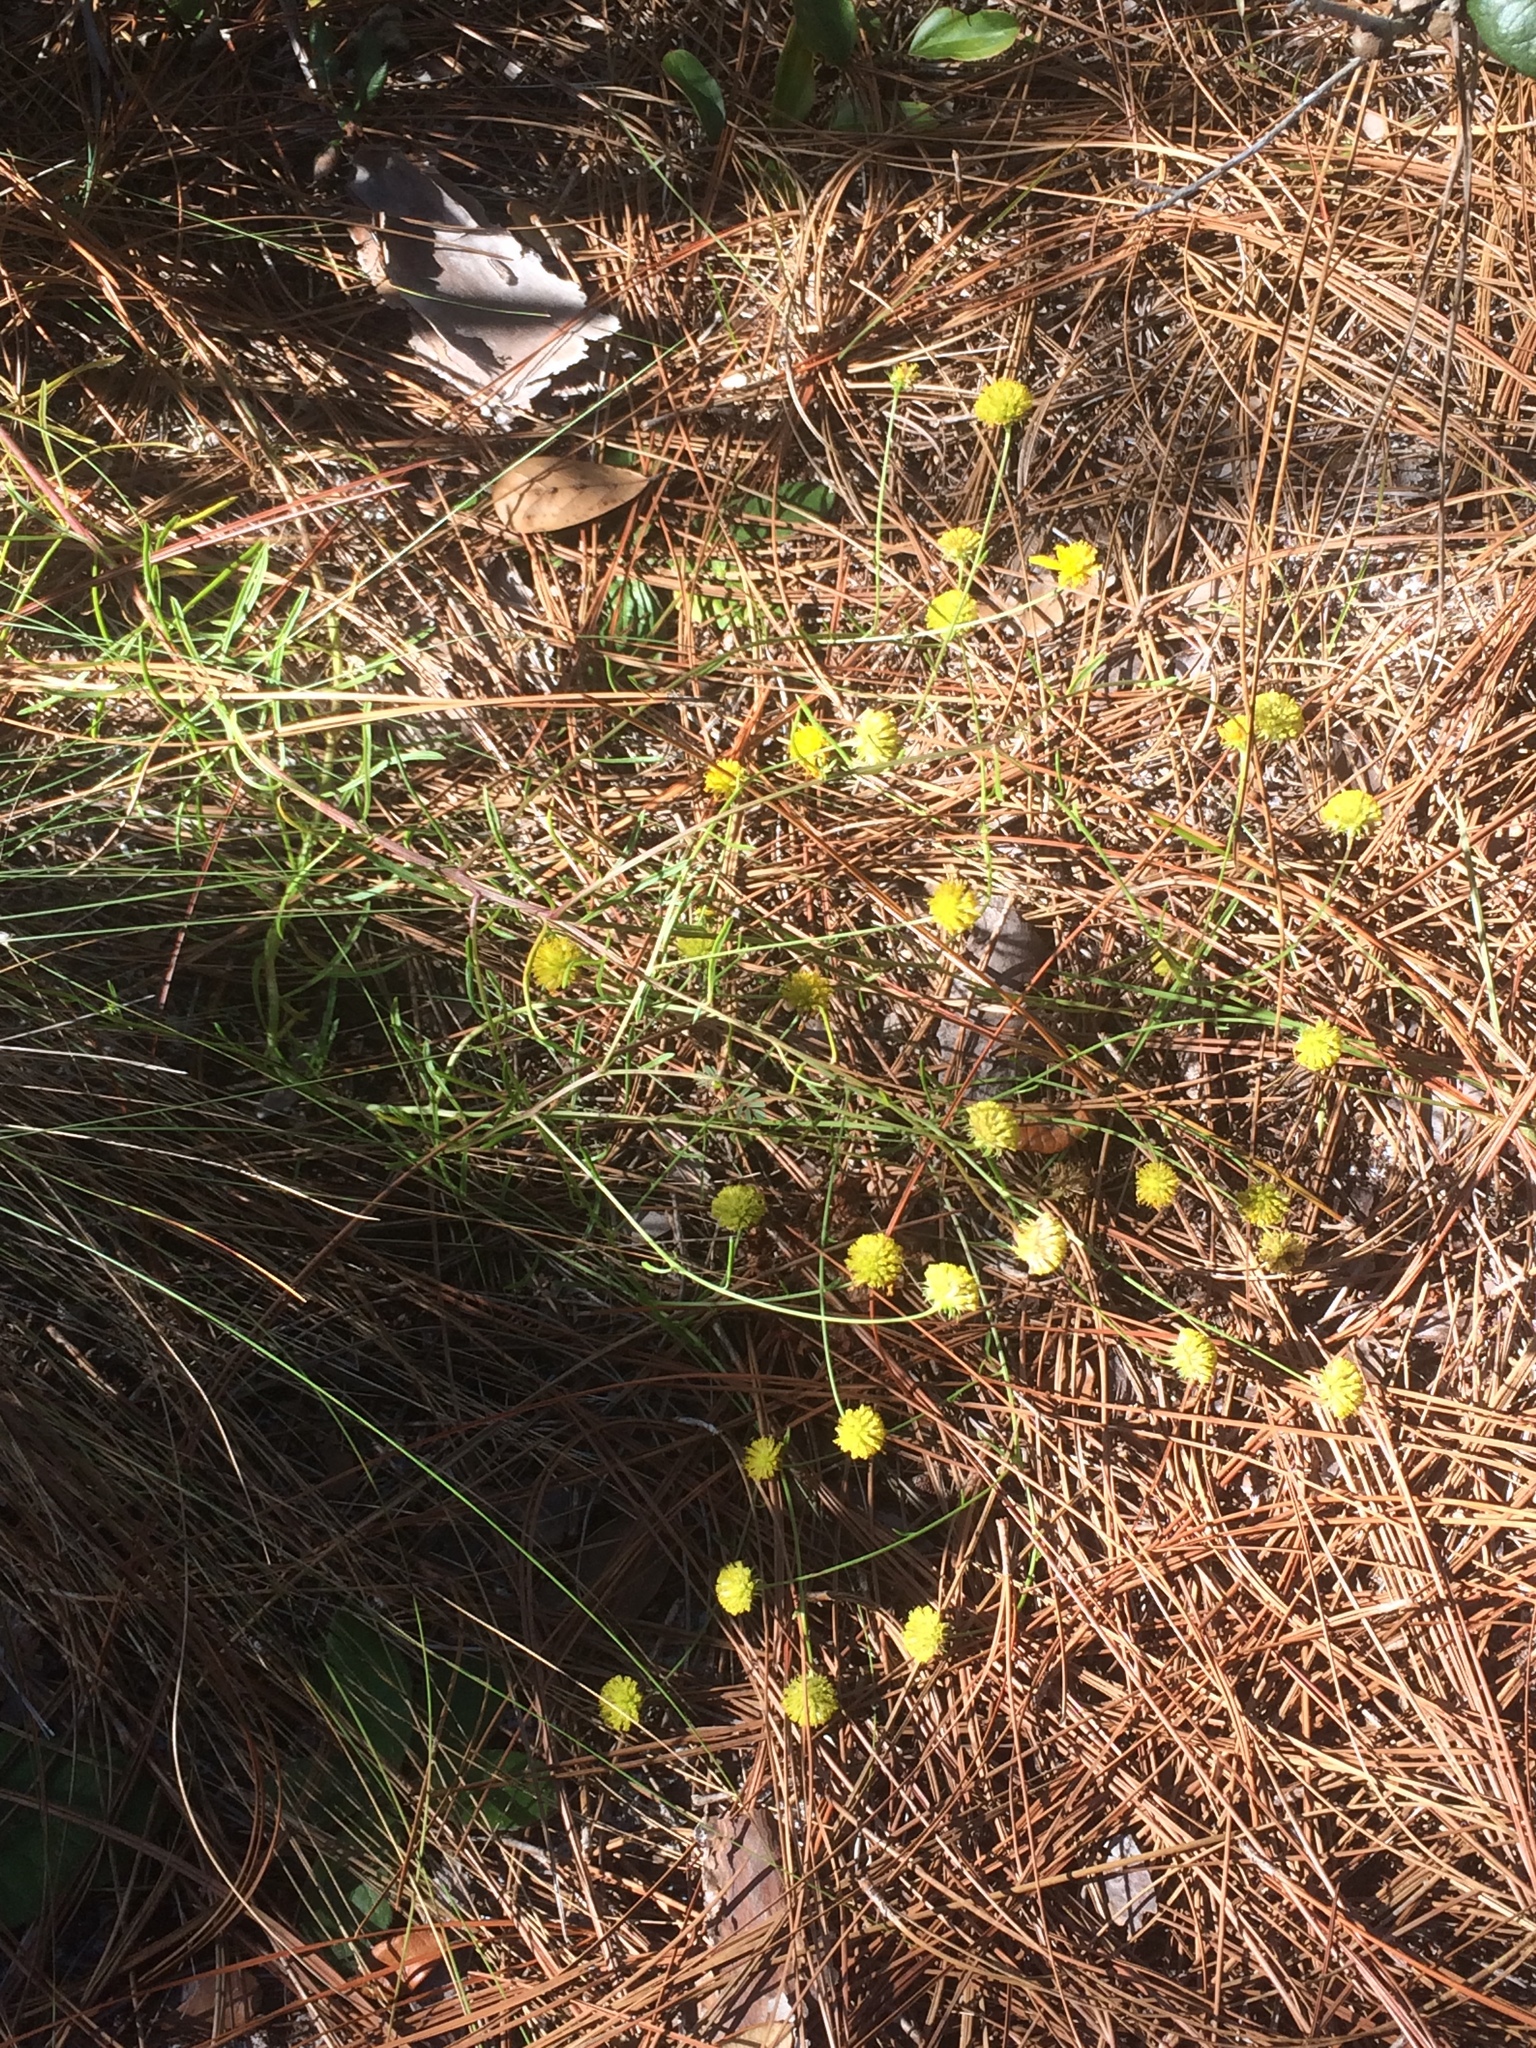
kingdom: Plantae
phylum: Tracheophyta
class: Magnoliopsida
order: Asterales
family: Asteraceae
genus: Balduina
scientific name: Balduina angustifolia
